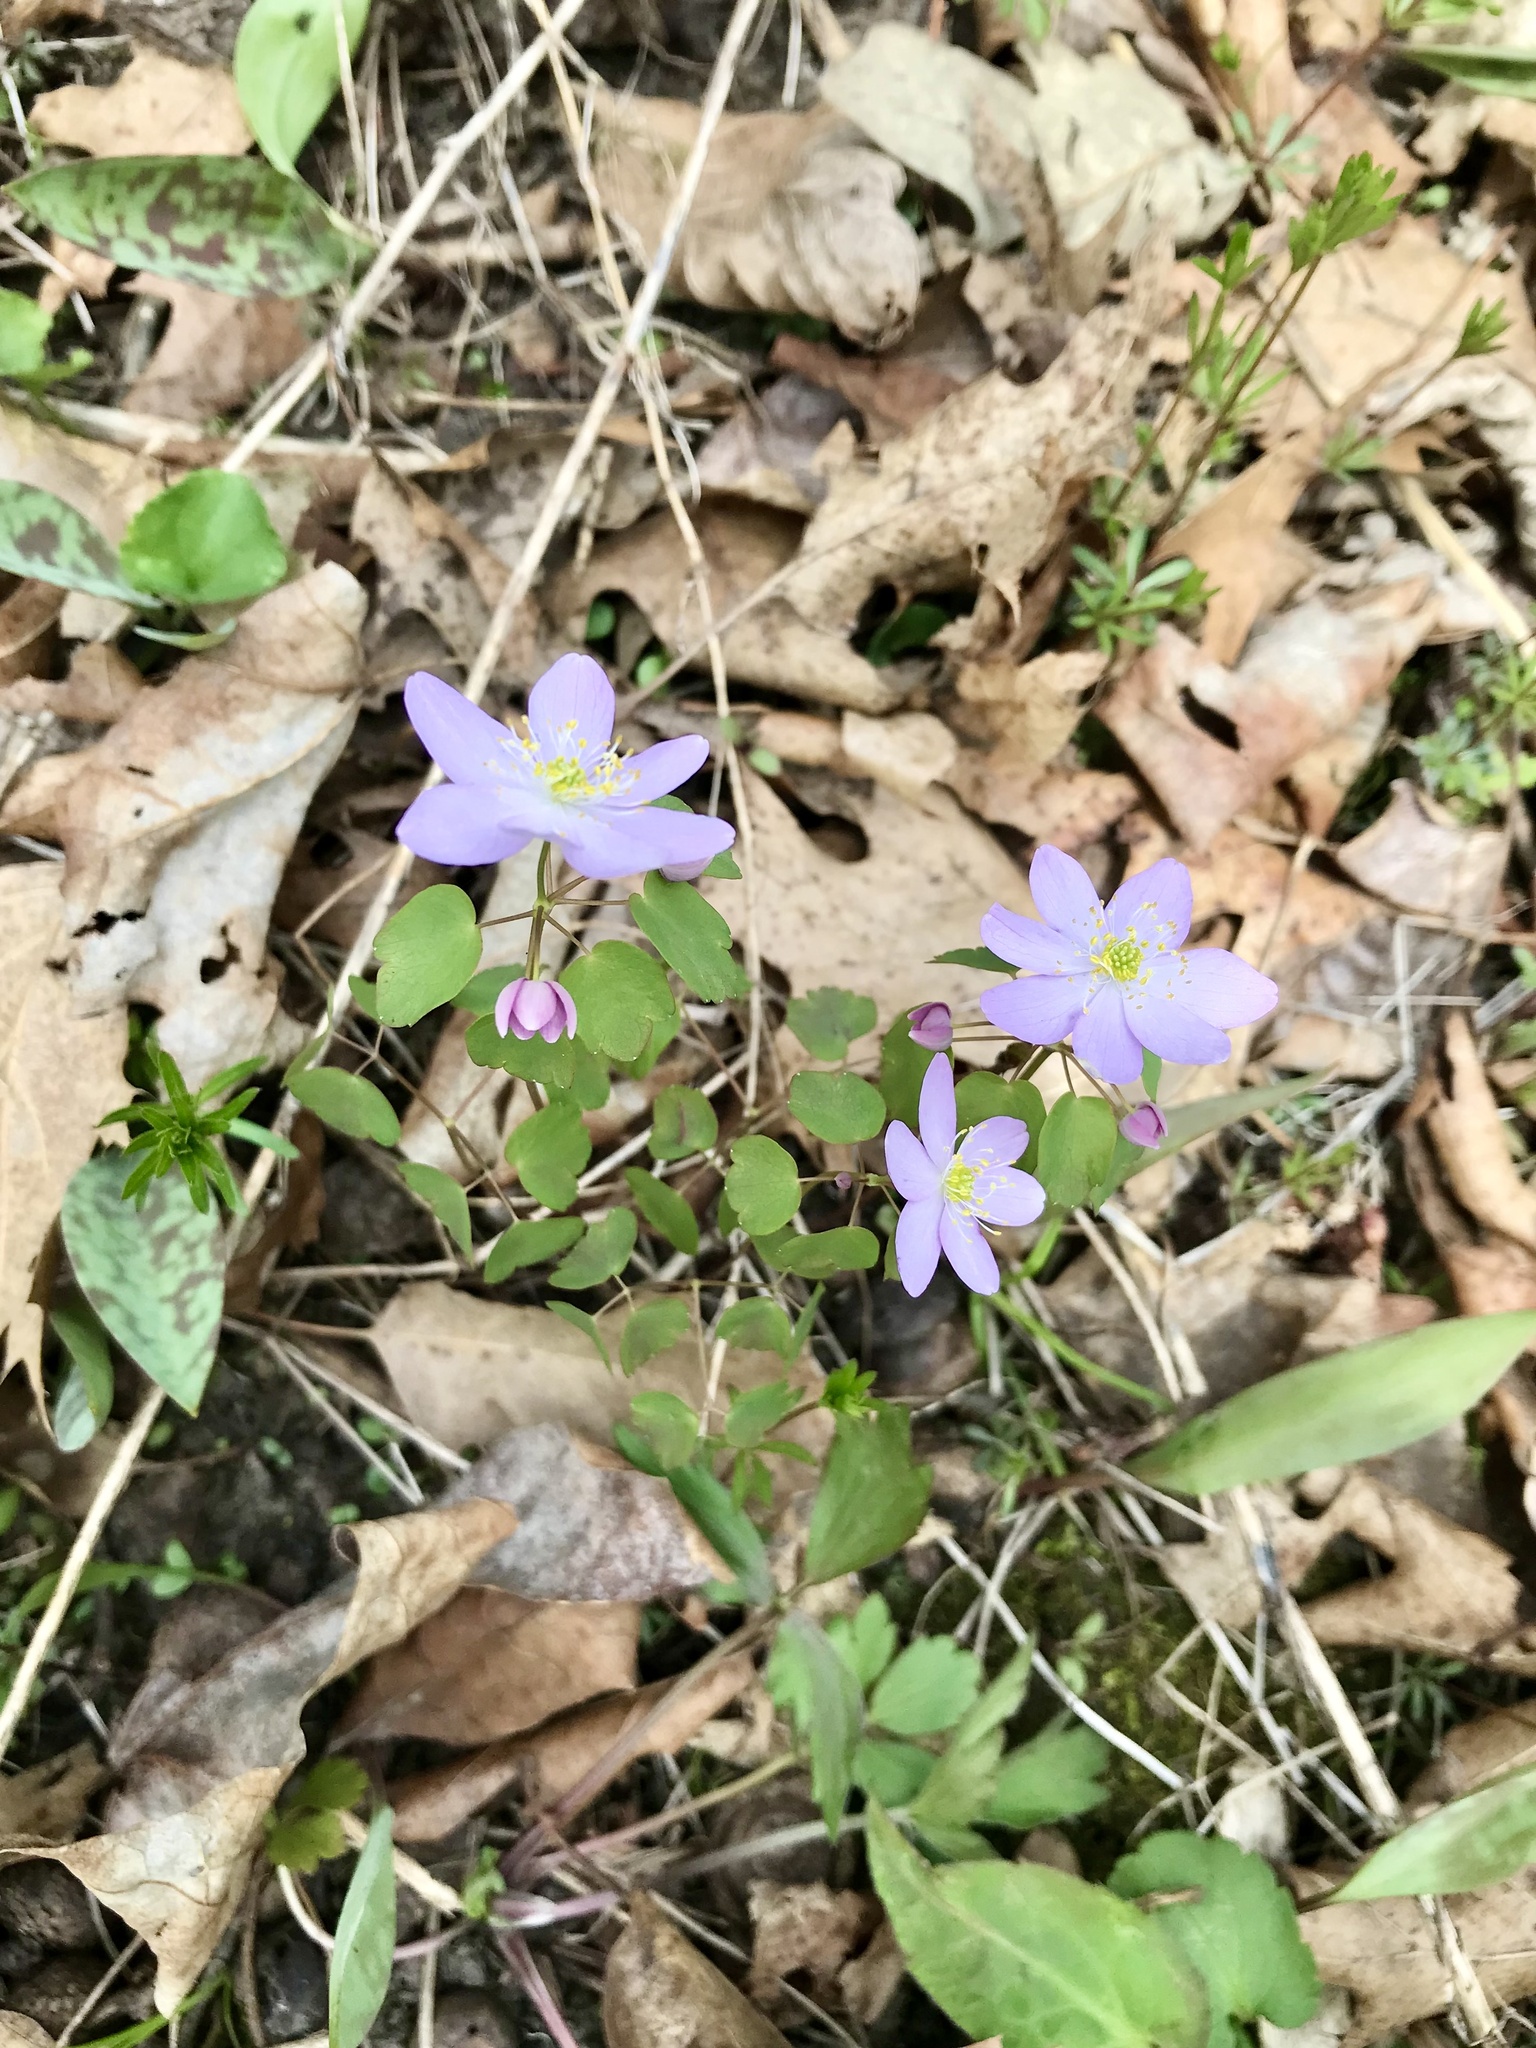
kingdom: Plantae
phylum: Tracheophyta
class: Magnoliopsida
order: Ranunculales
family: Ranunculaceae
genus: Thalictrum
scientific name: Thalictrum thalictroides
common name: Rue-anemone
